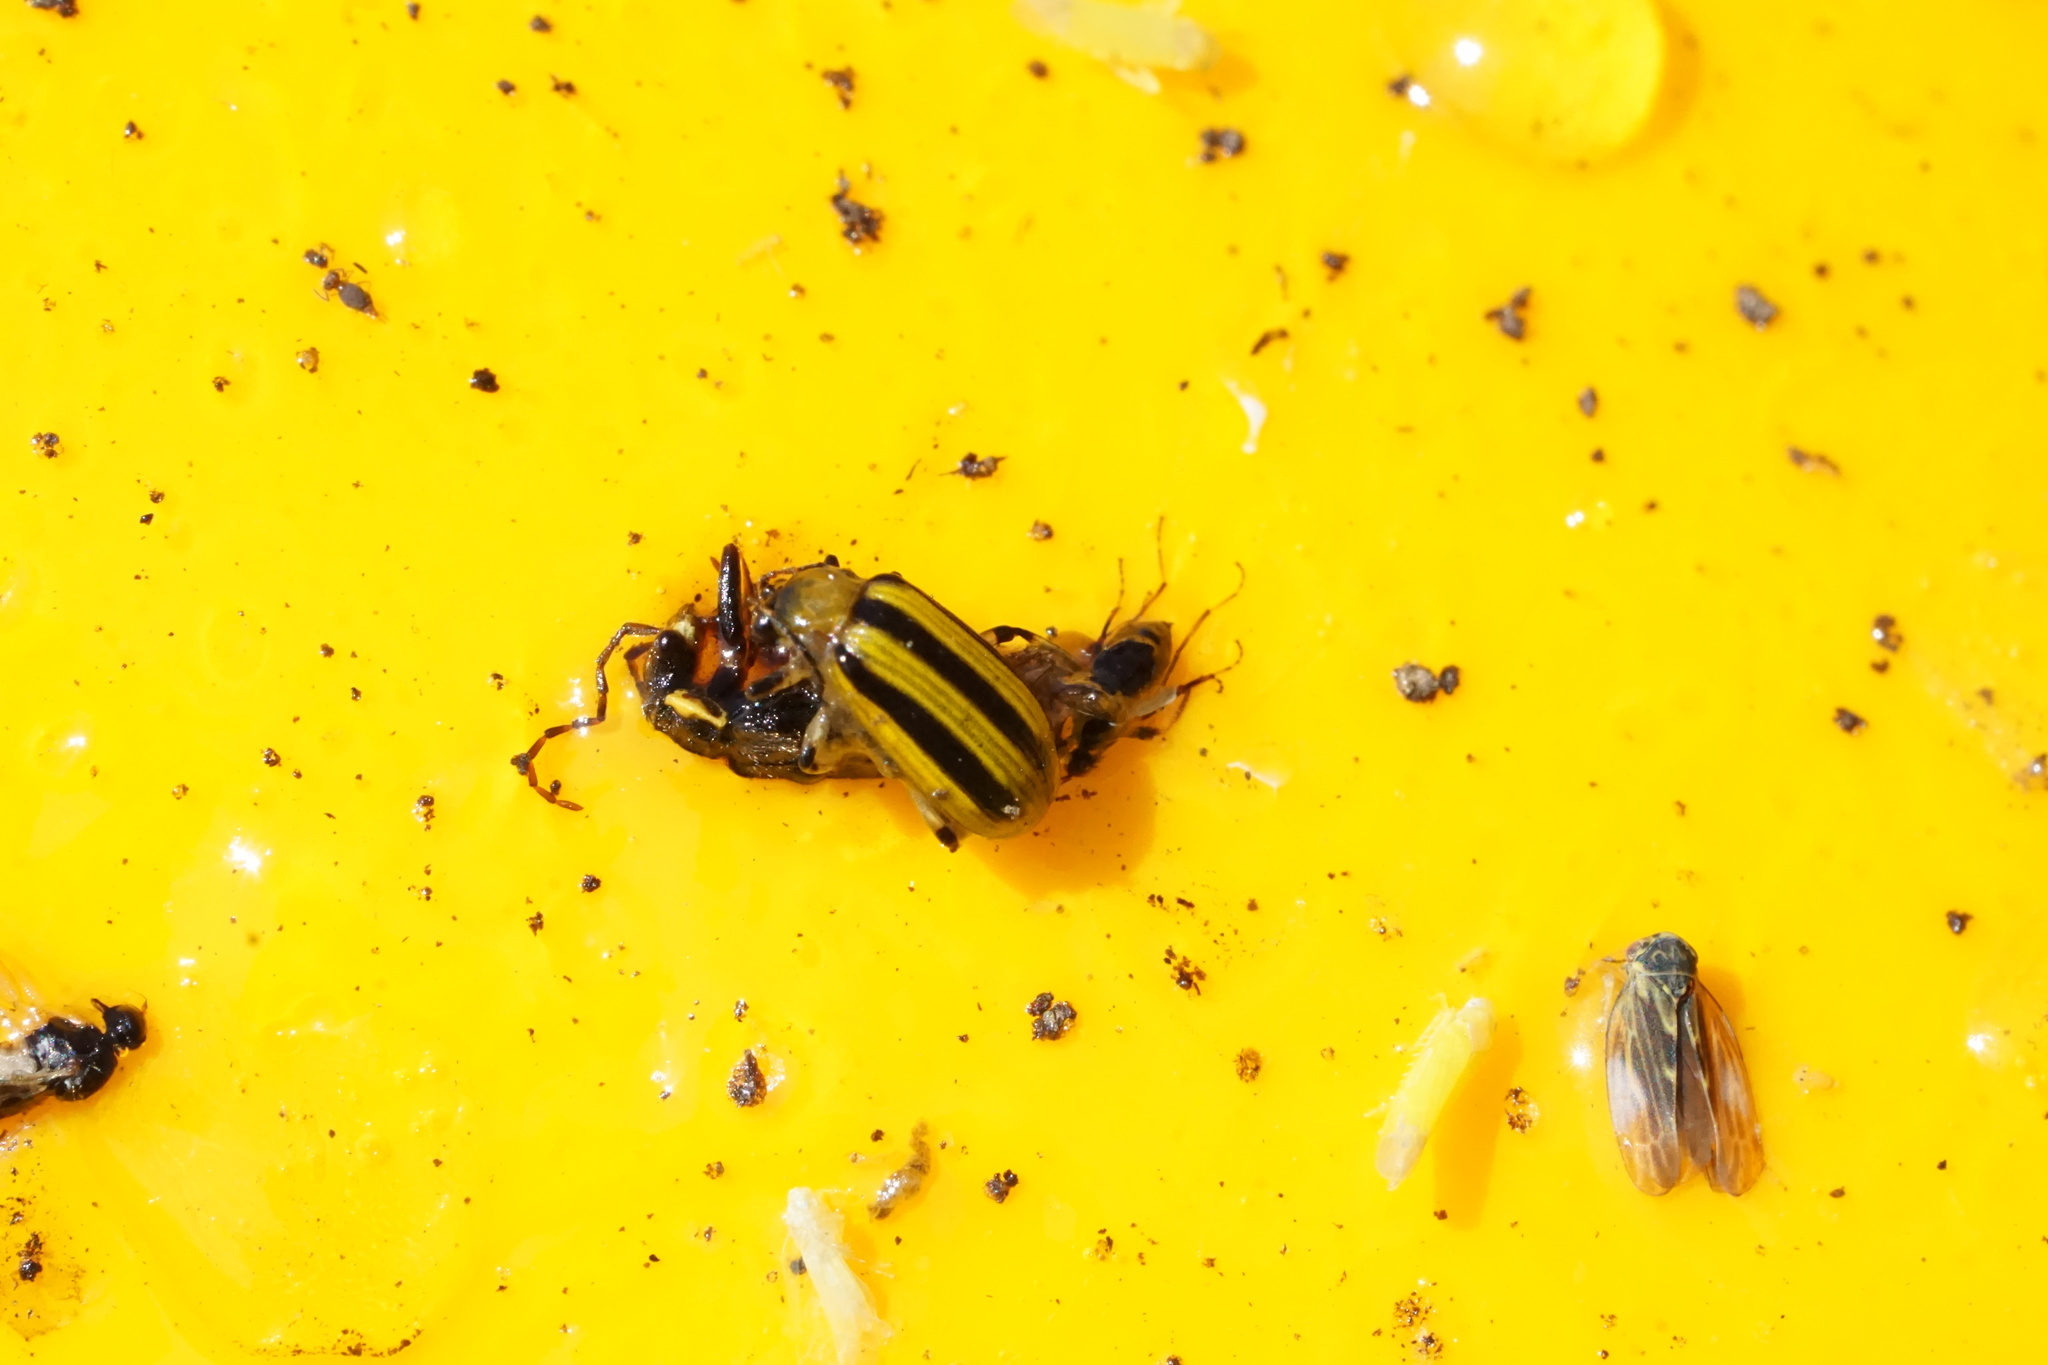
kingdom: Animalia
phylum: Arthropoda
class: Insecta
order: Coleoptera
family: Chrysomelidae
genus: Acalymma
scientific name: Acalymma vittatum
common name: Striped cucumber beetle
